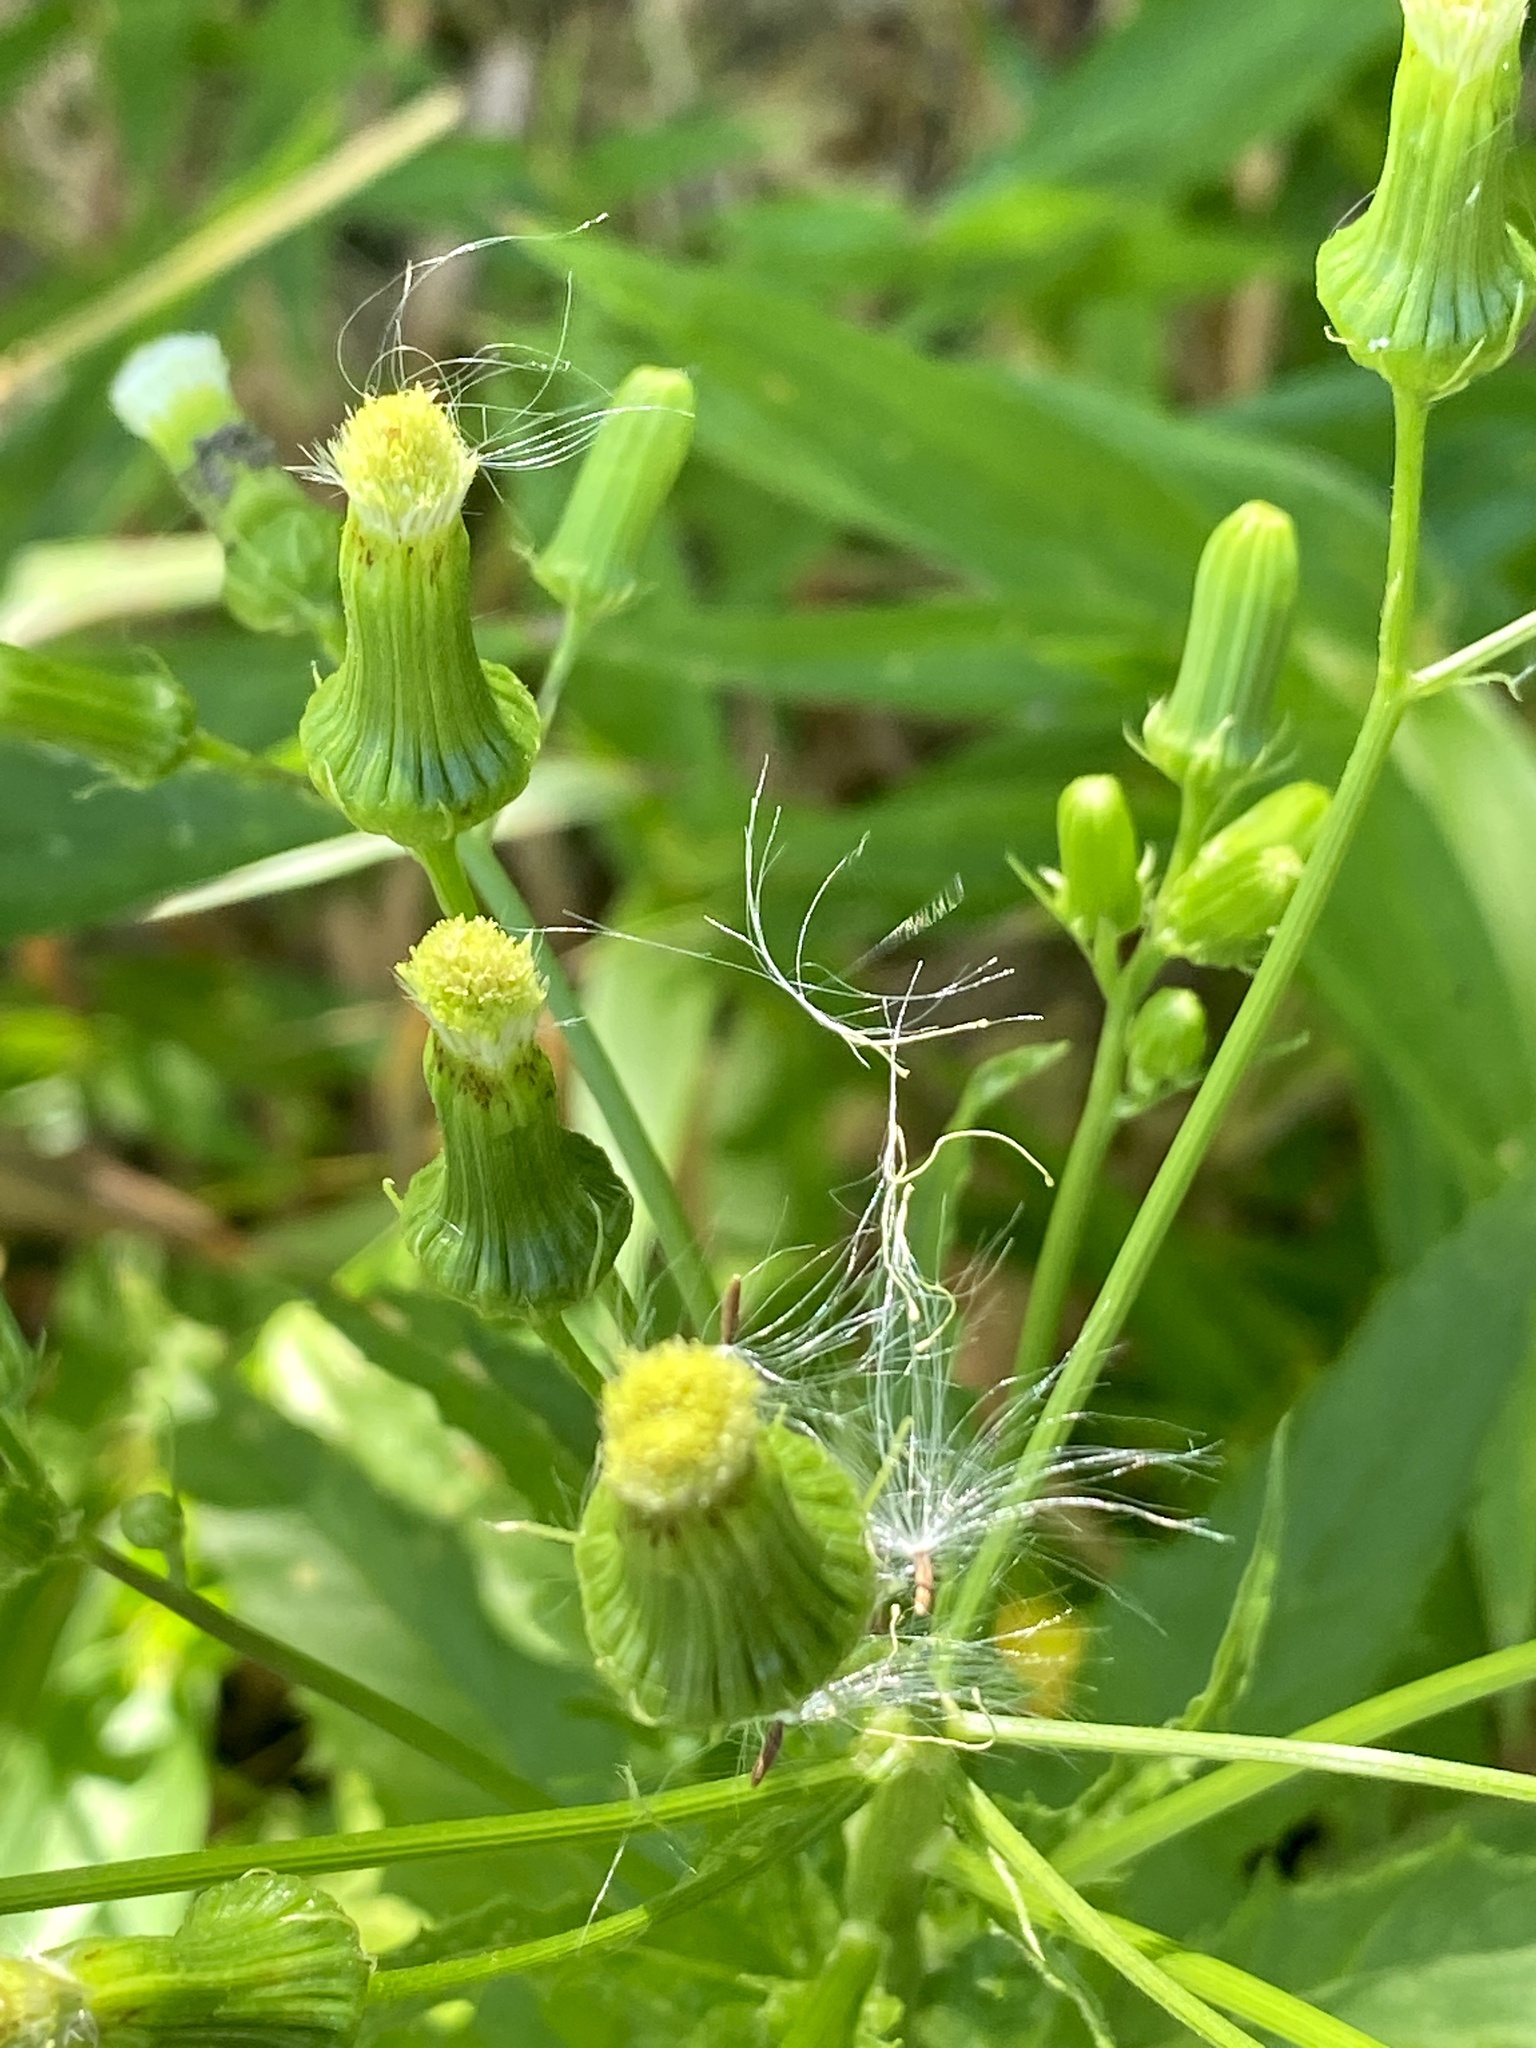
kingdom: Plantae
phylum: Tracheophyta
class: Magnoliopsida
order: Asterales
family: Asteraceae
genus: Erechtites
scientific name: Erechtites hieraciifolius
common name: American burnweed
